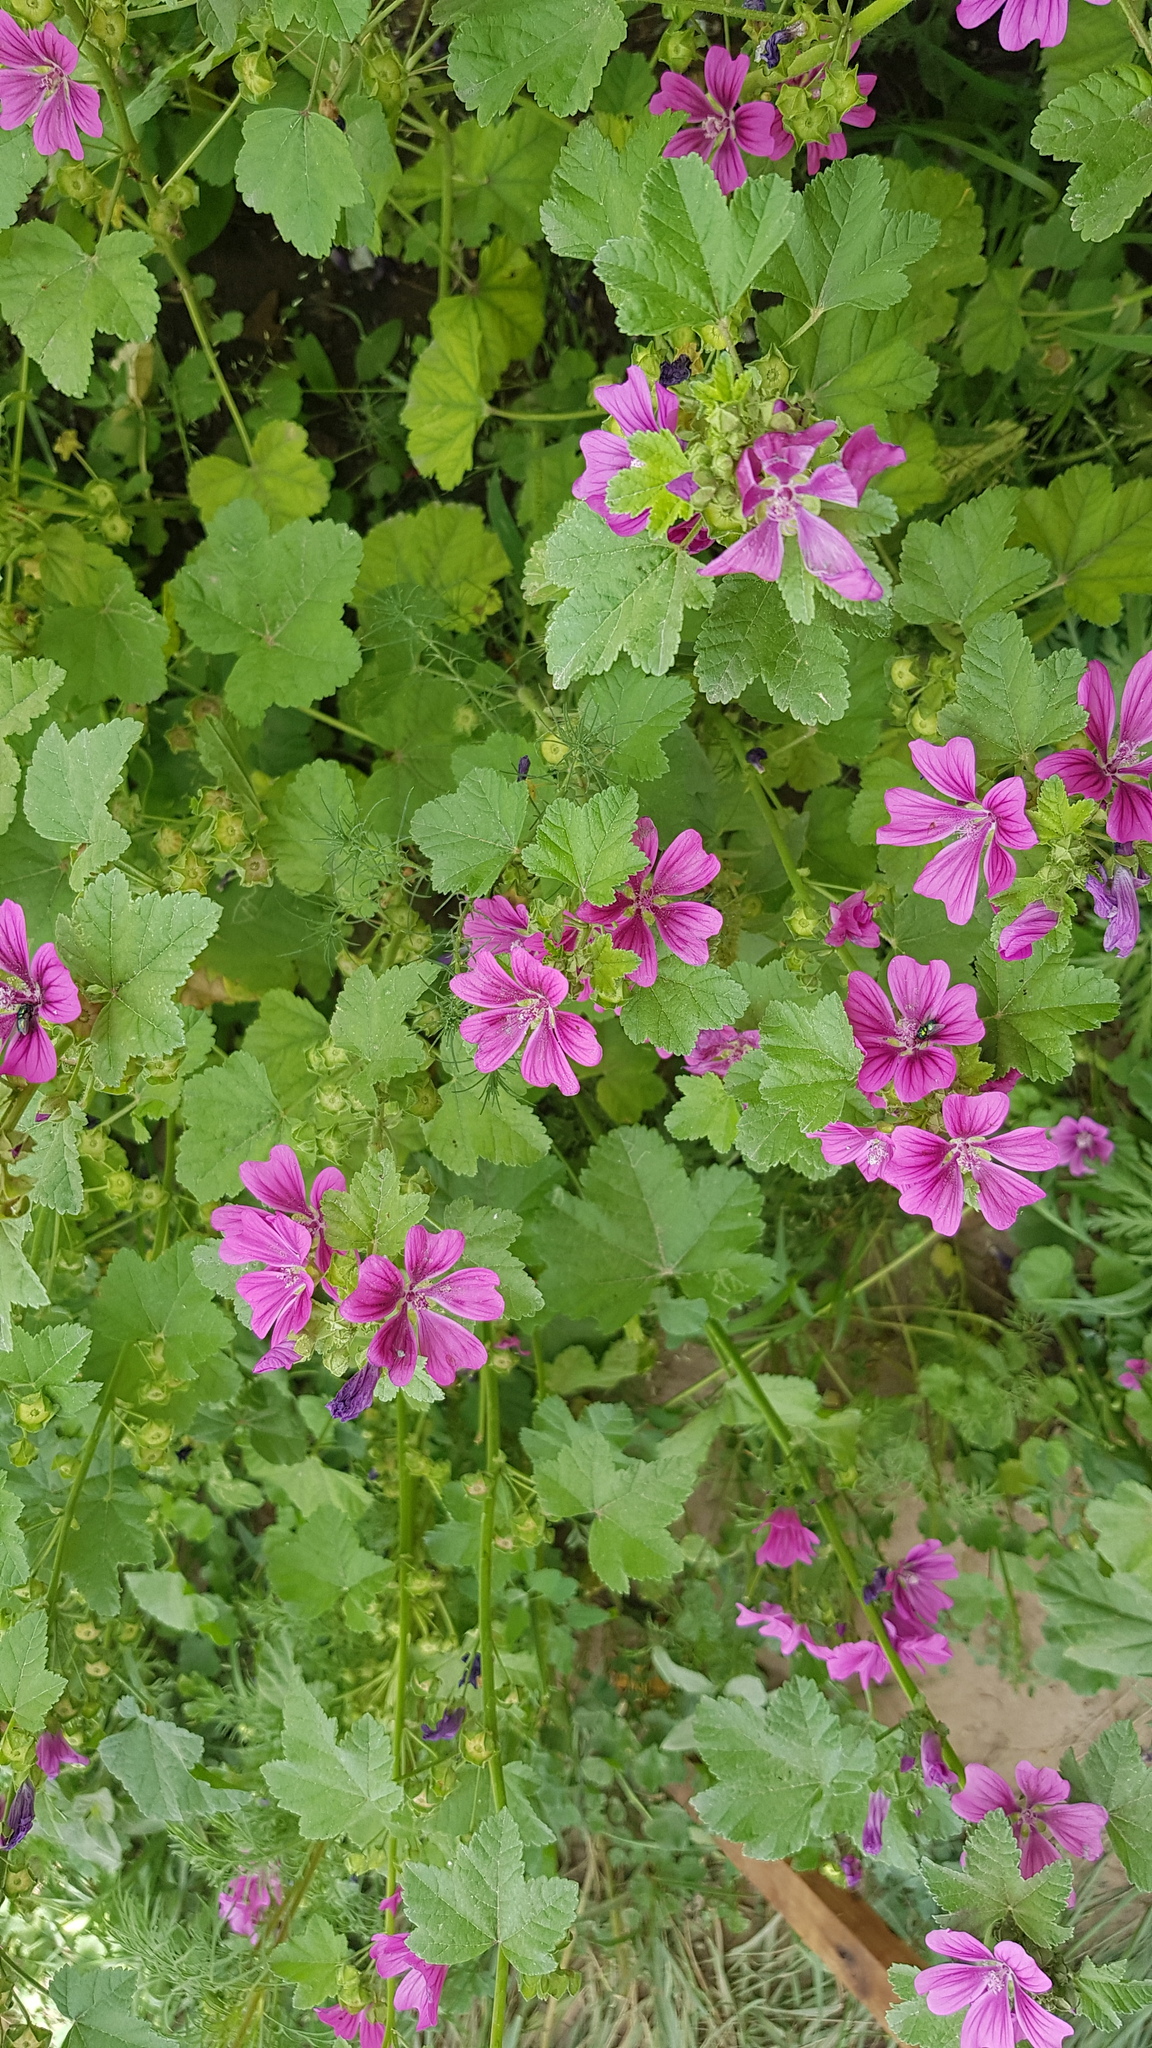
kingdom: Plantae
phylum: Tracheophyta
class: Magnoliopsida
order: Malvales
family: Malvaceae
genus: Malva
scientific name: Malva sylvestris
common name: Common mallow
